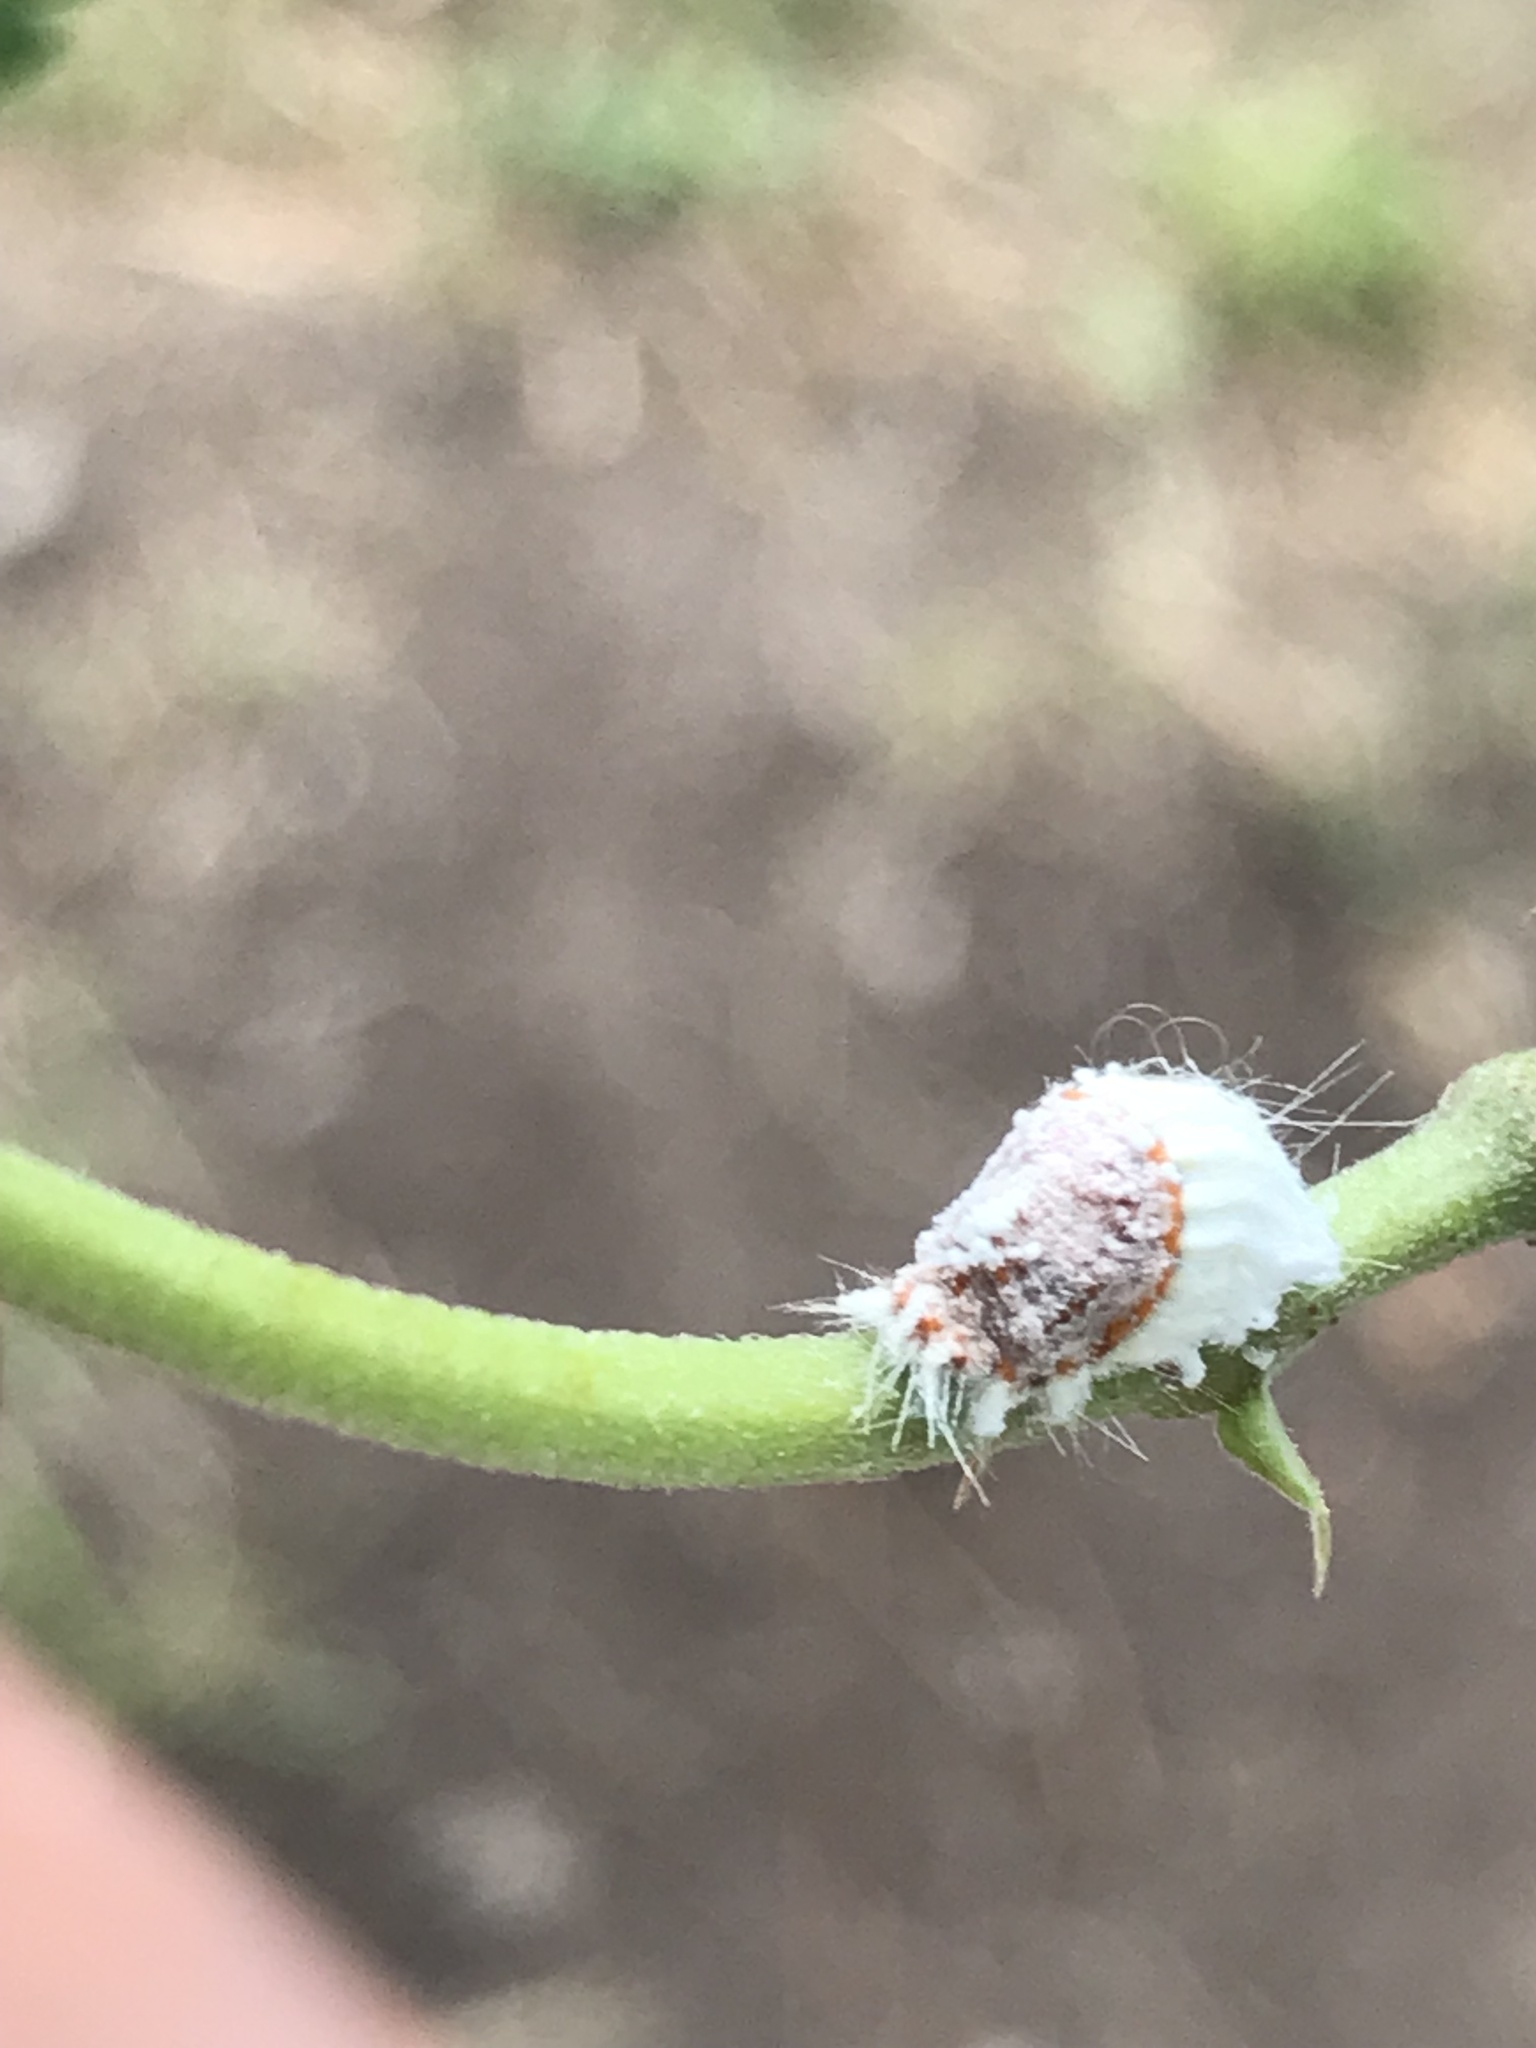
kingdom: Animalia
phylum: Arthropoda
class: Insecta
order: Hemiptera
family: Margarodidae
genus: Icerya
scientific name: Icerya purchasi
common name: Cottony cushion scale
